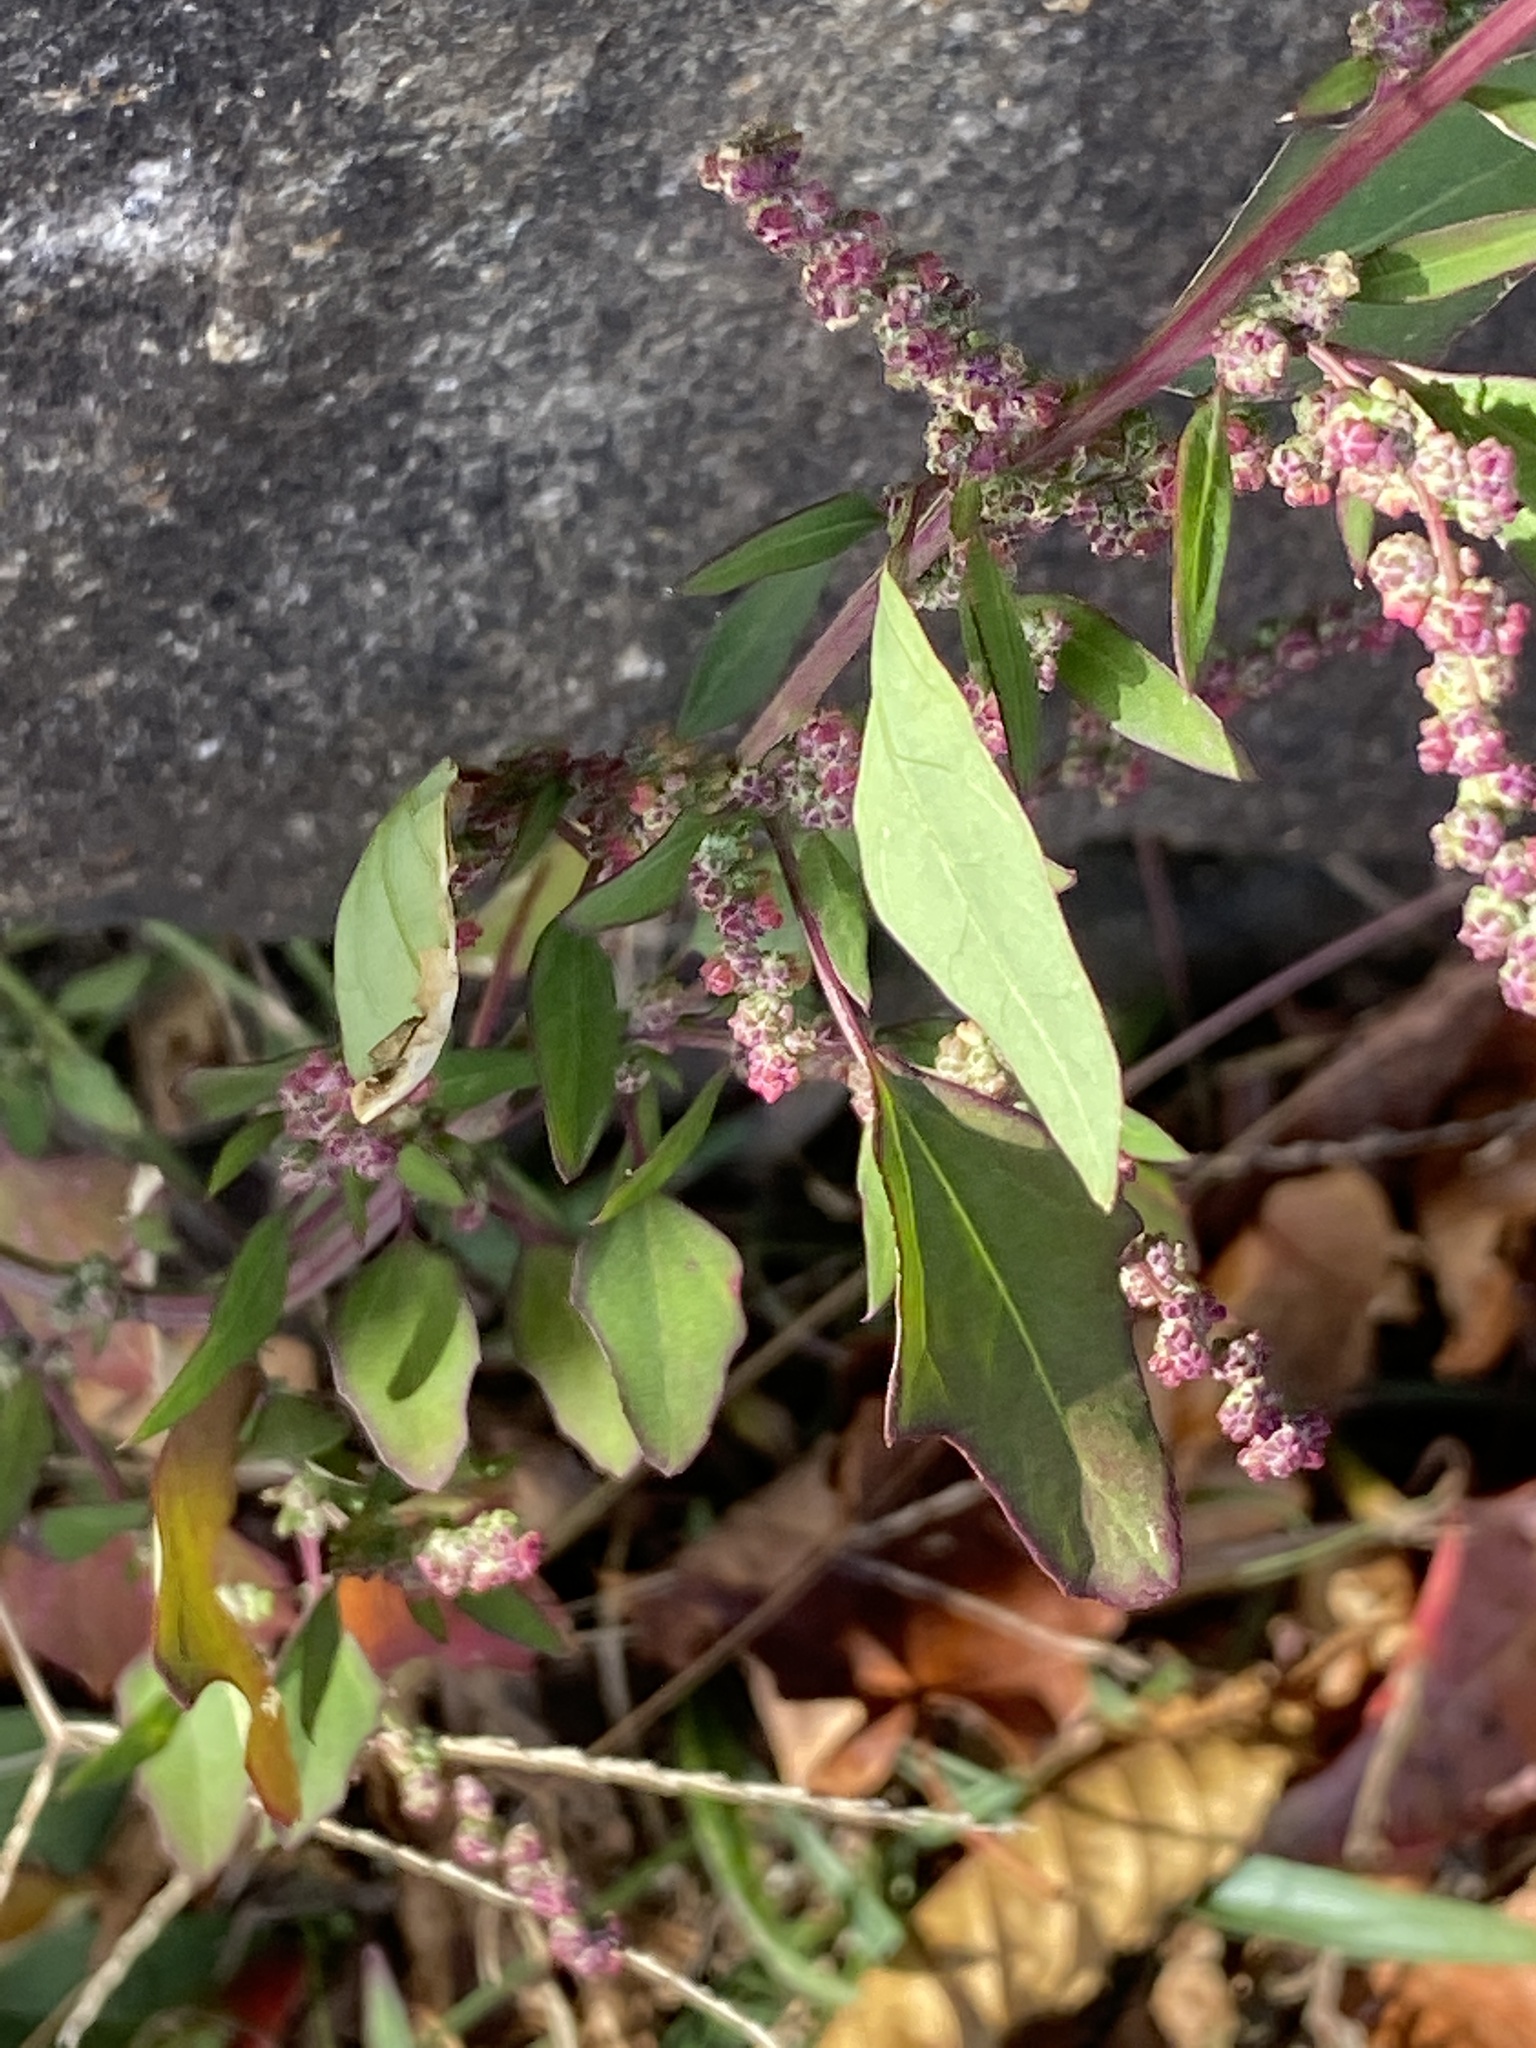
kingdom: Plantae
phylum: Tracheophyta
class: Magnoliopsida
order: Caryophyllales
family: Amaranthaceae
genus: Chenopodium
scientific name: Chenopodium album
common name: Fat-hen
